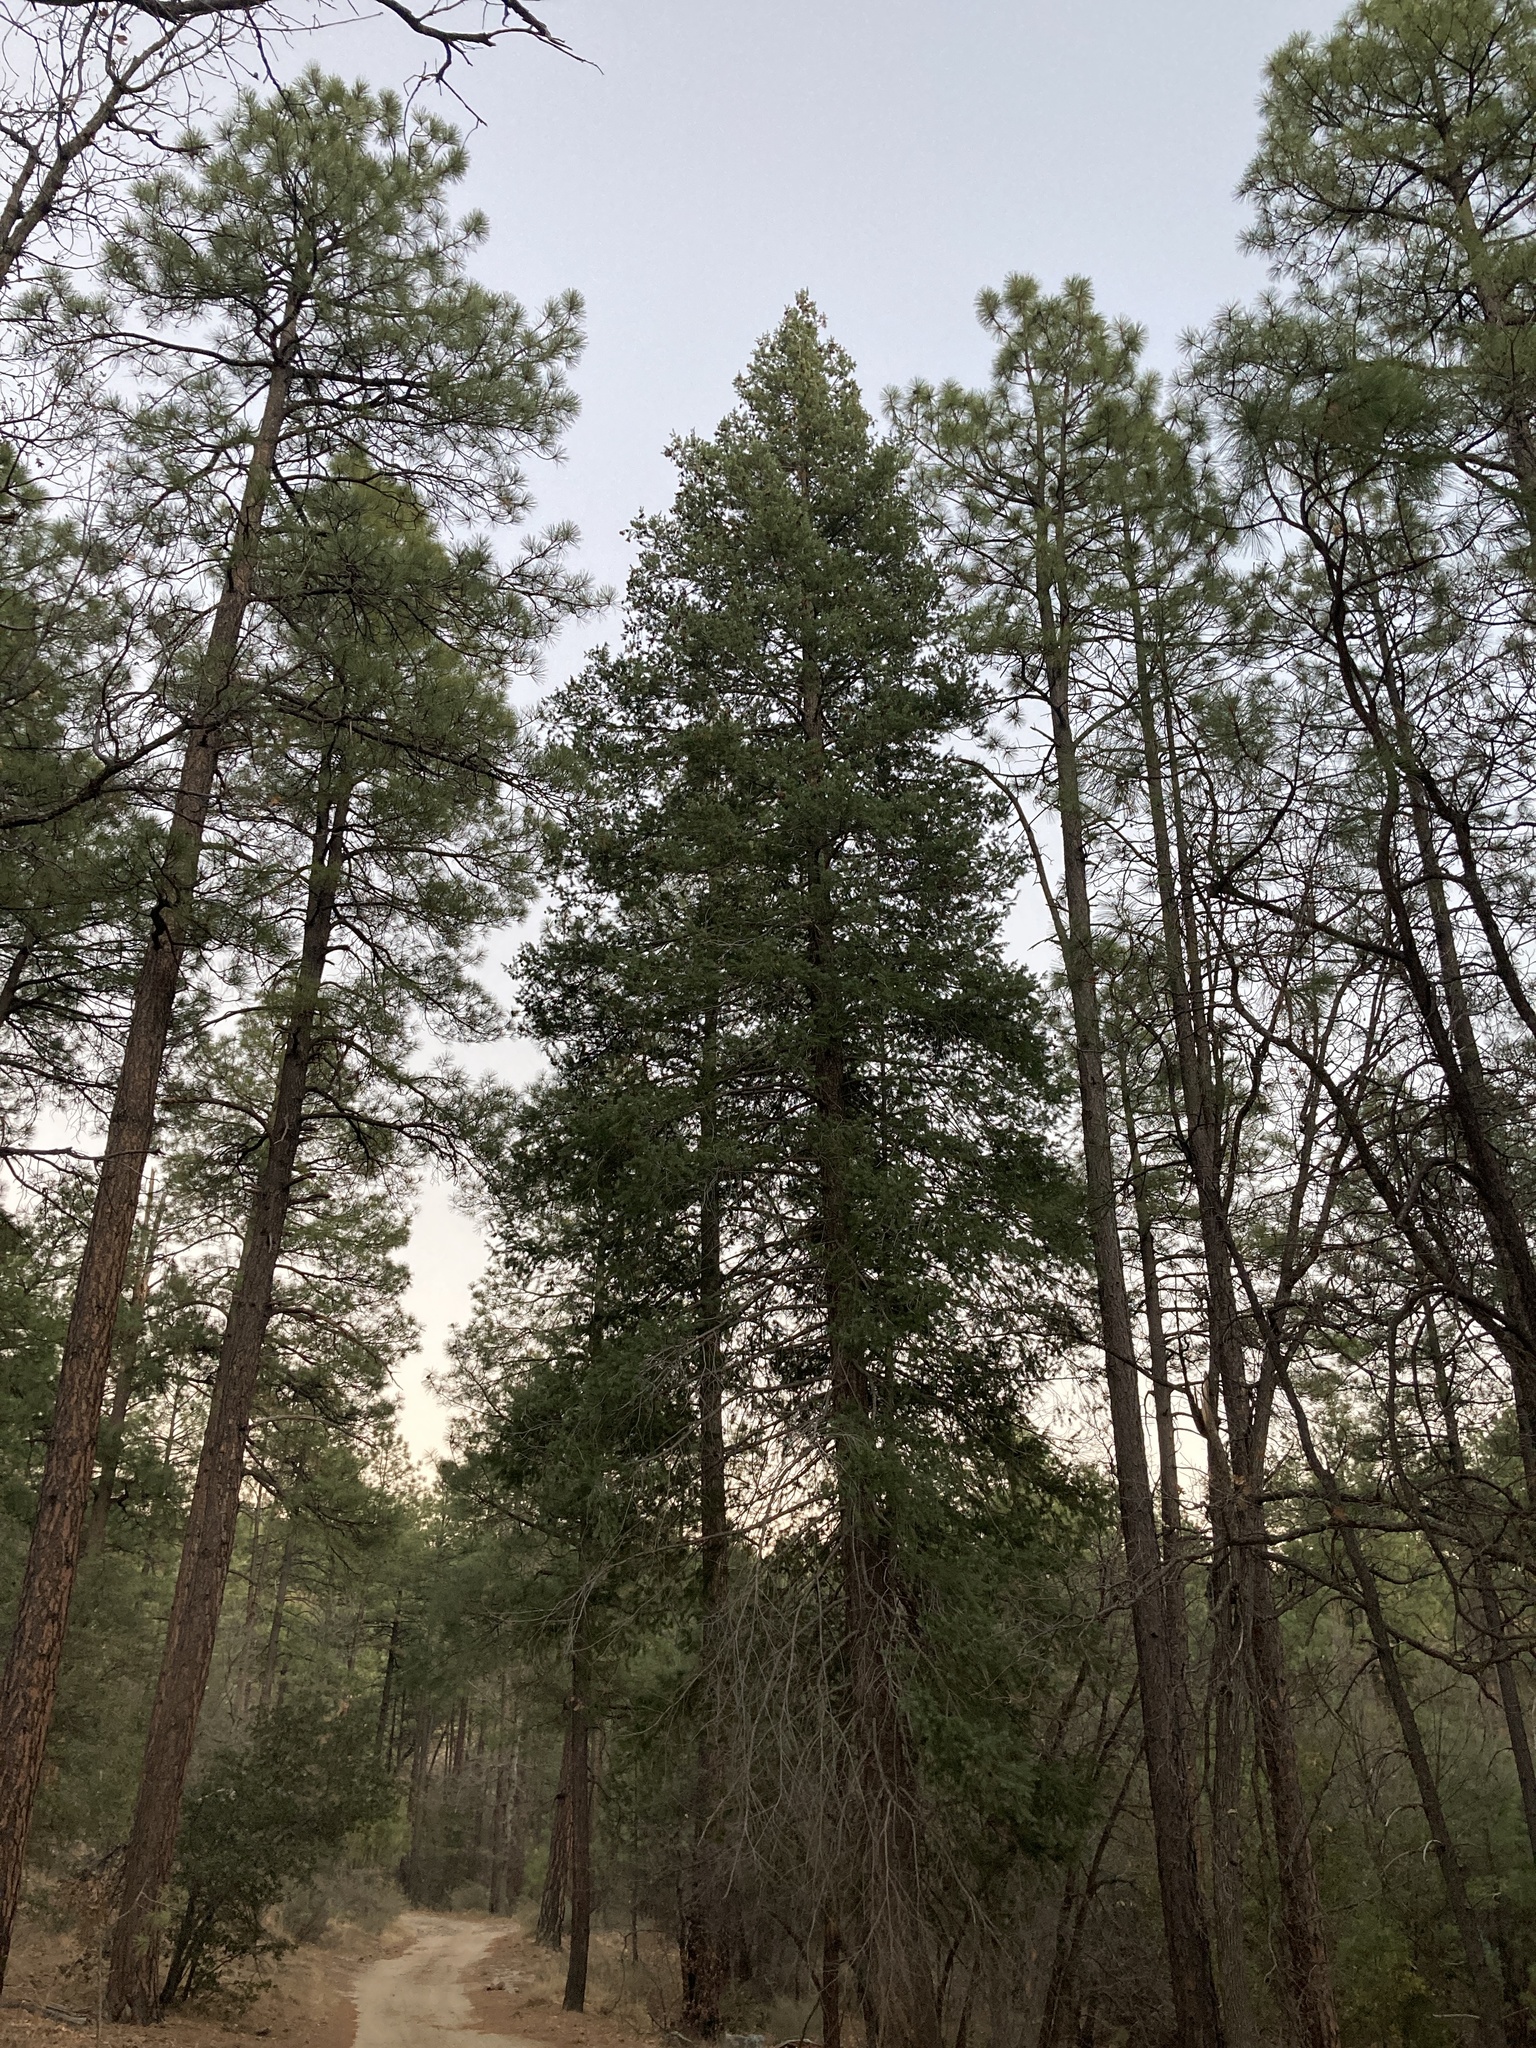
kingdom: Plantae
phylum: Tracheophyta
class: Pinopsida
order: Pinales
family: Pinaceae
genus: Pseudotsuga
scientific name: Pseudotsuga menziesii
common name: Douglas fir
